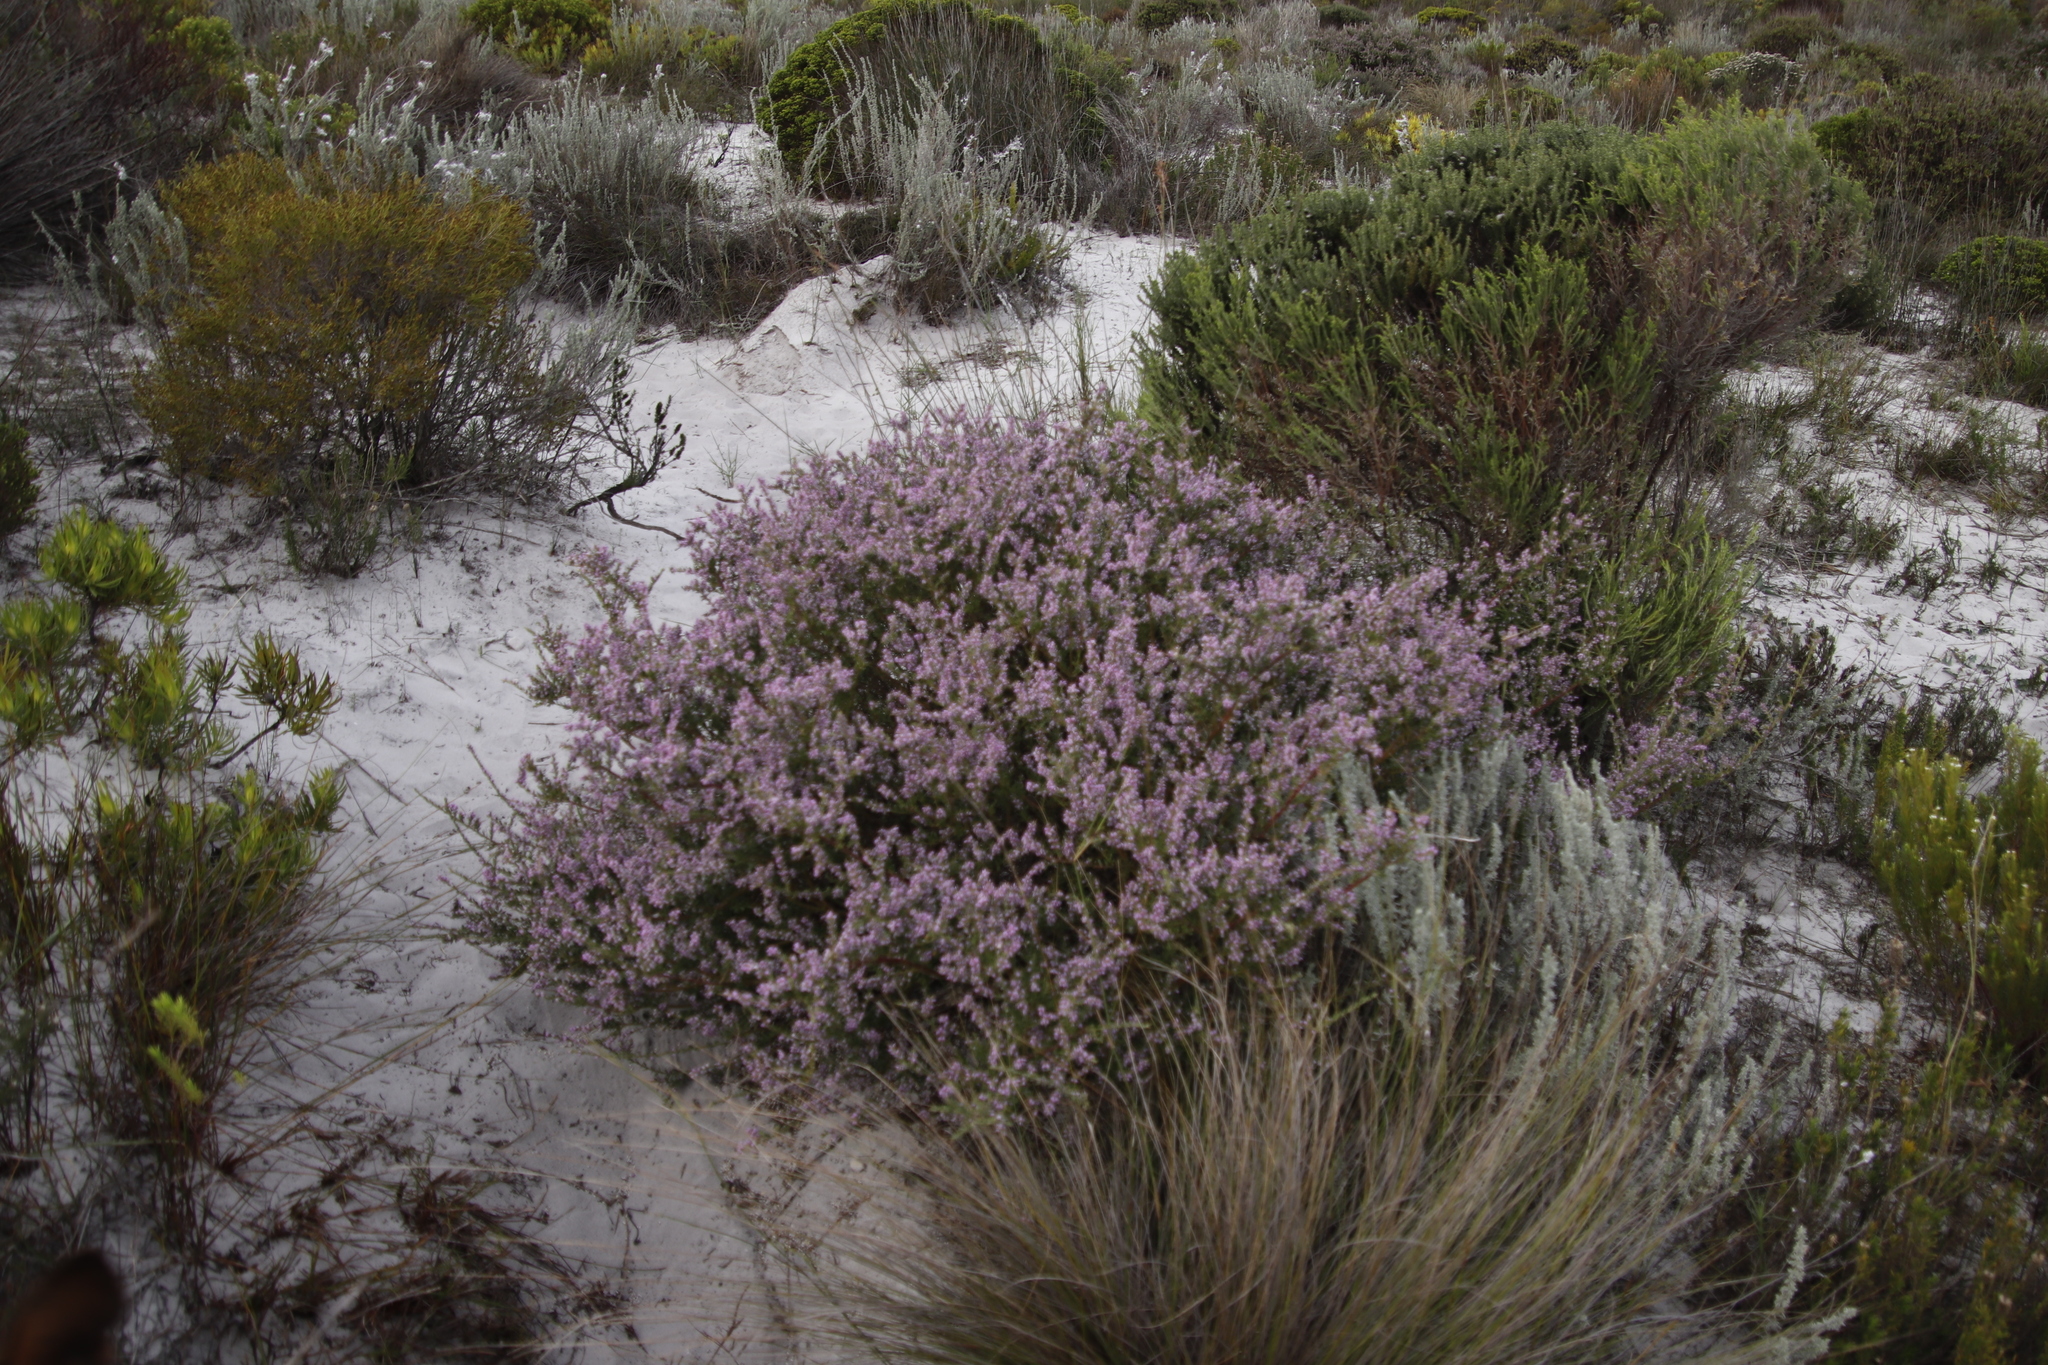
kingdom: Plantae
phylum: Tracheophyta
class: Magnoliopsida
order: Fabales
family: Polygalaceae
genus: Muraltia
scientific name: Muraltia spinosa
